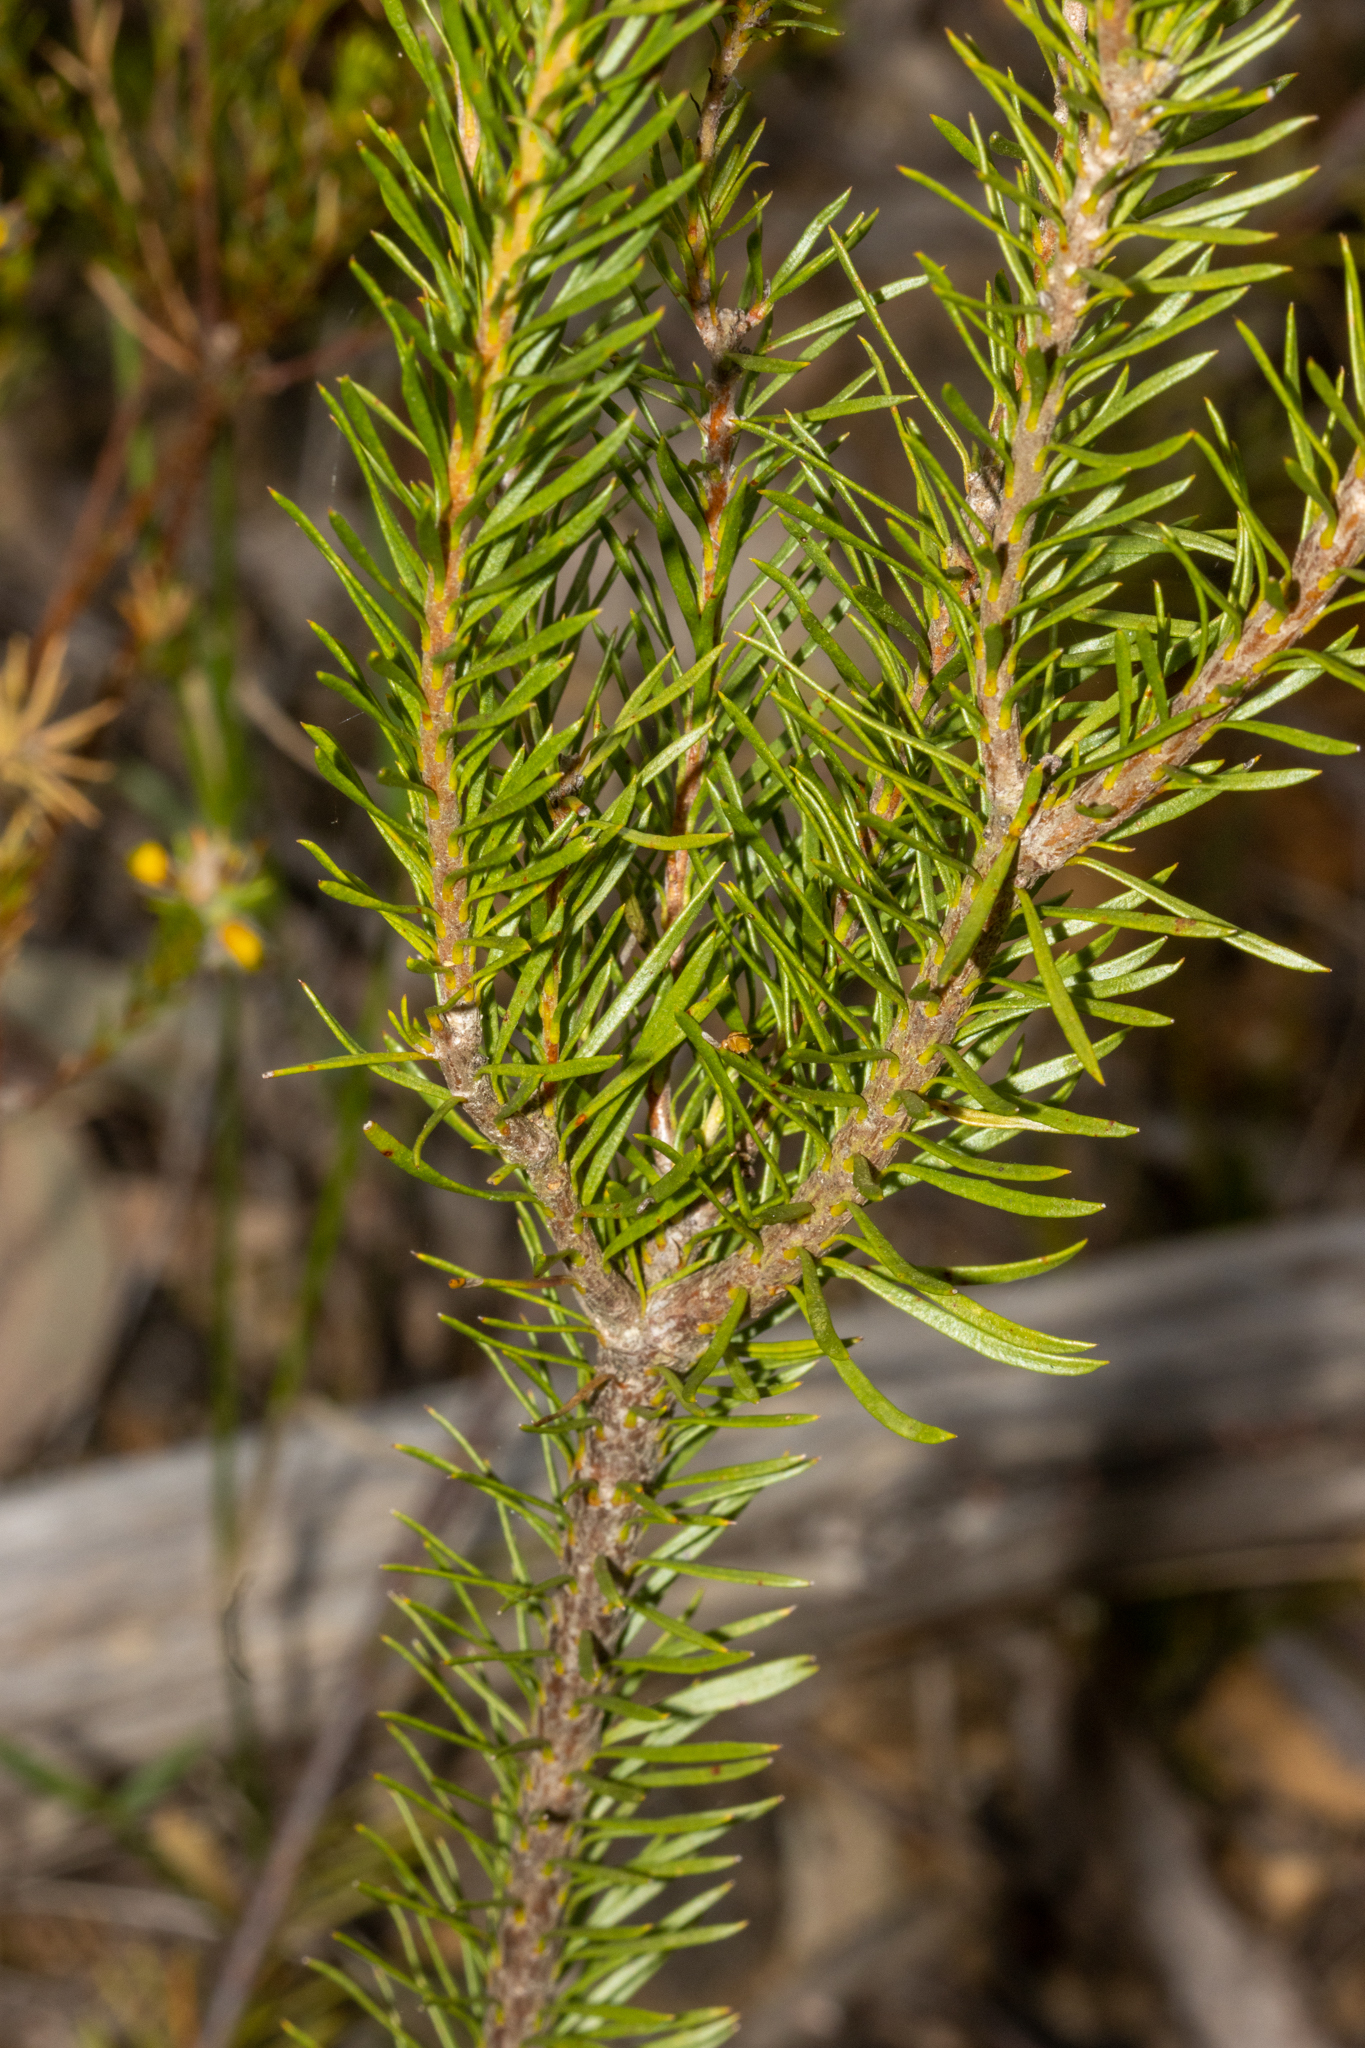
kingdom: Plantae
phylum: Tracheophyta
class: Magnoliopsida
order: Proteales
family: Proteaceae
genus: Conospermum
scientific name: Conospermum taxifolium
